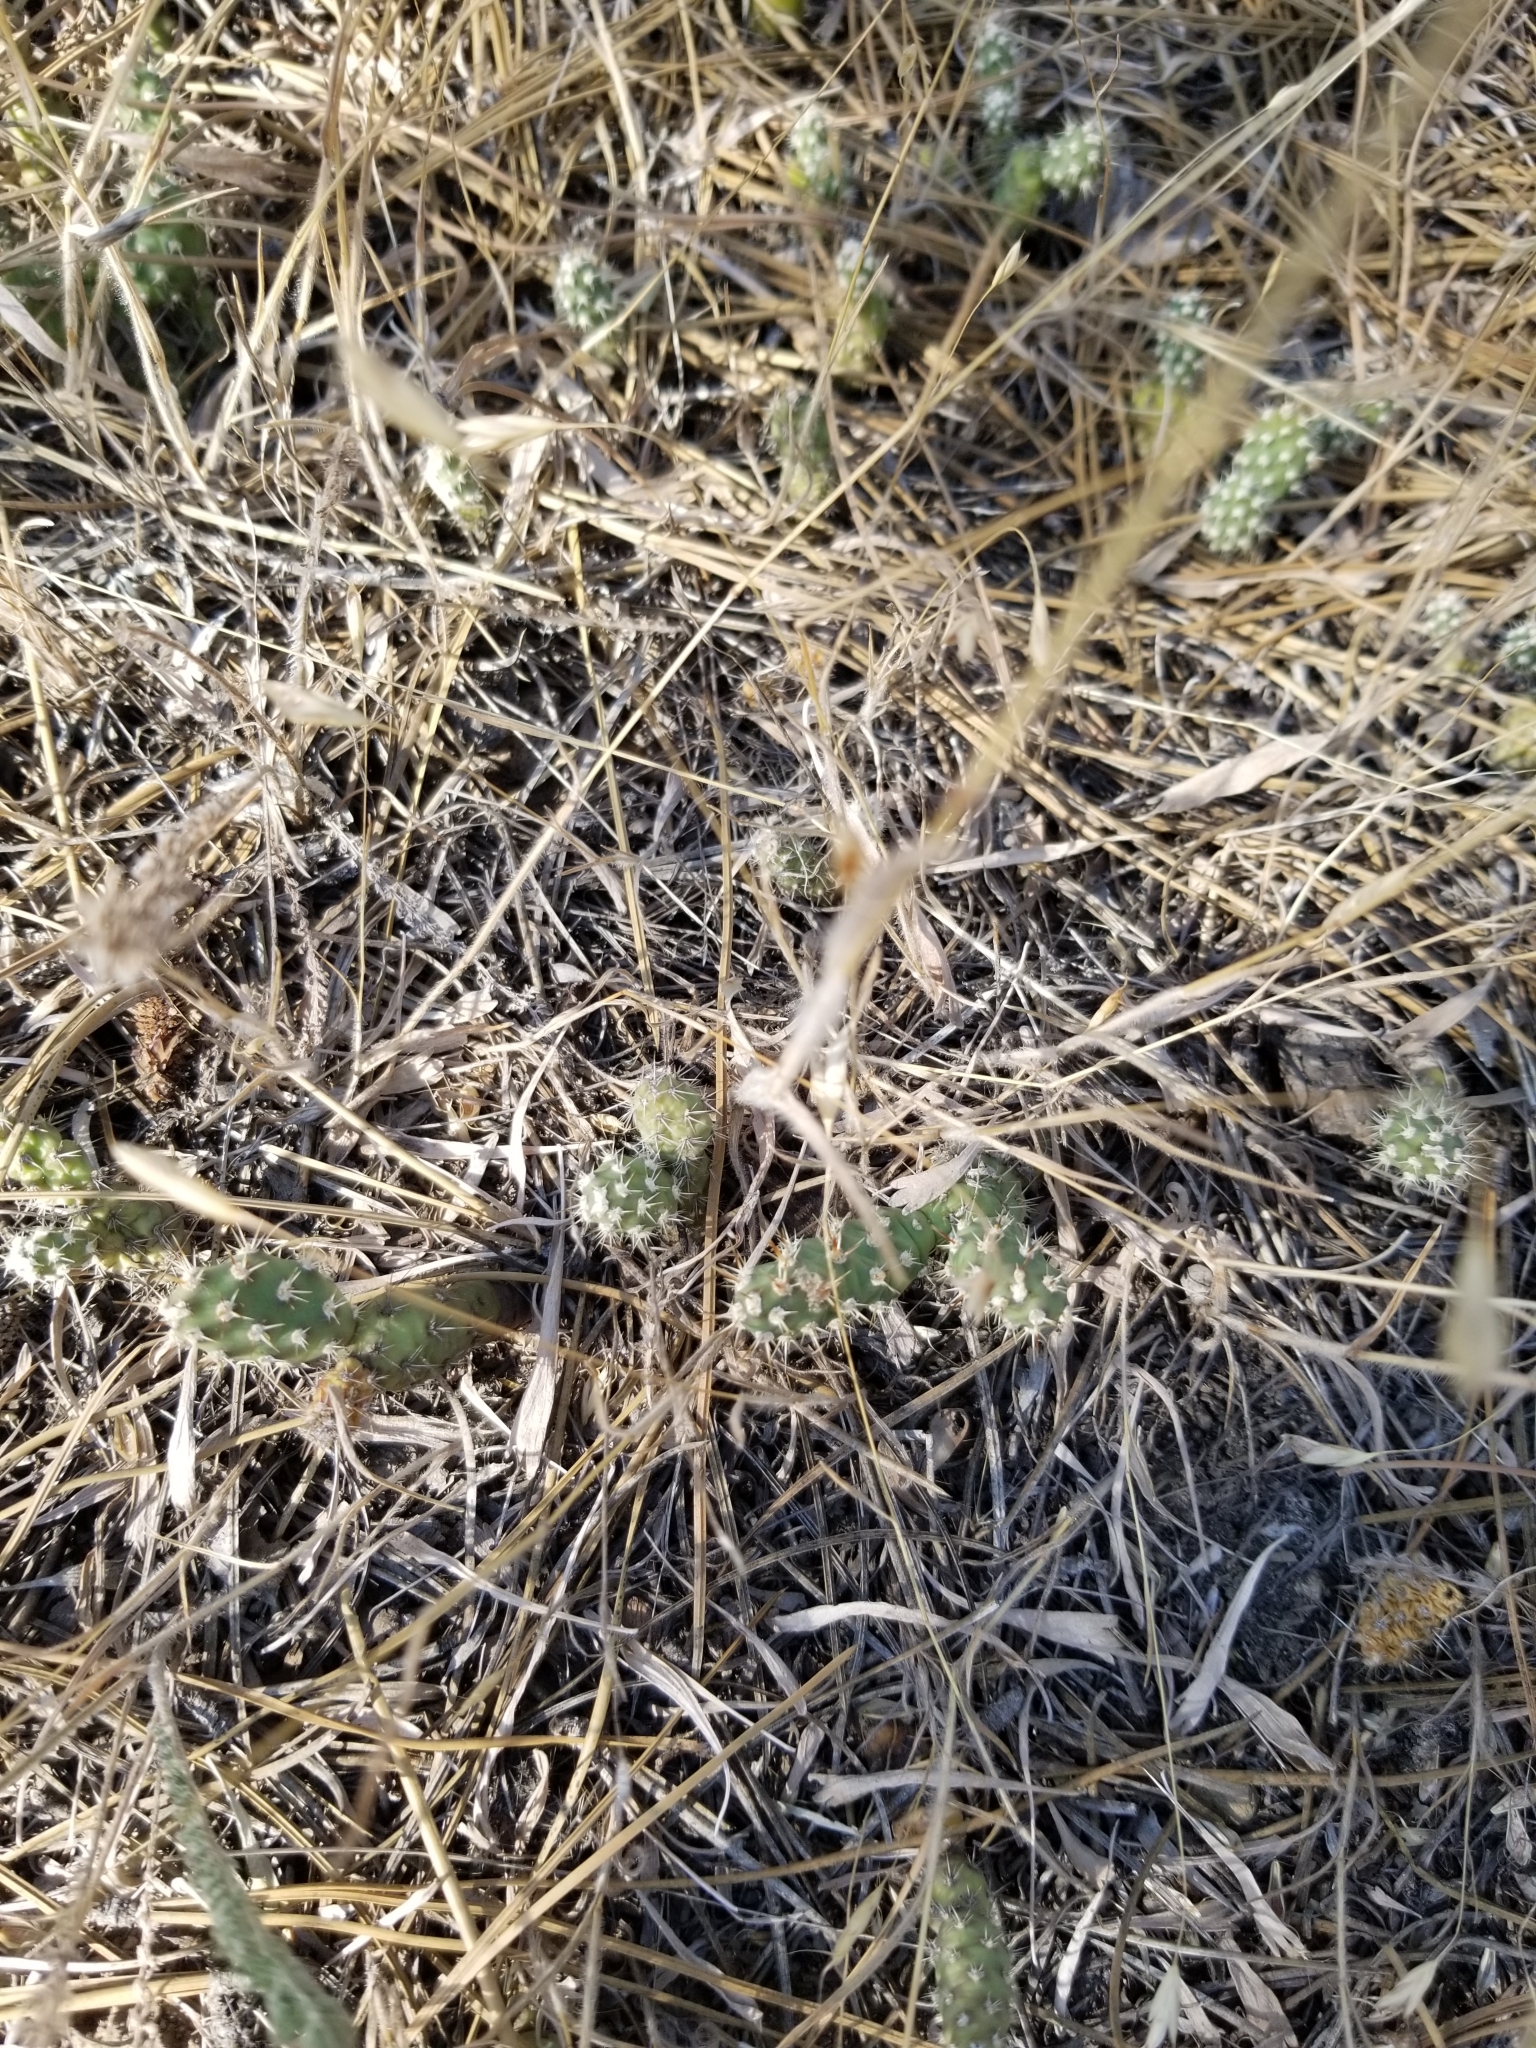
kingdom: Plantae
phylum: Tracheophyta
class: Magnoliopsida
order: Caryophyllales
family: Cactaceae
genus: Opuntia
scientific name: Opuntia fragilis
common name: Brittle cactus
